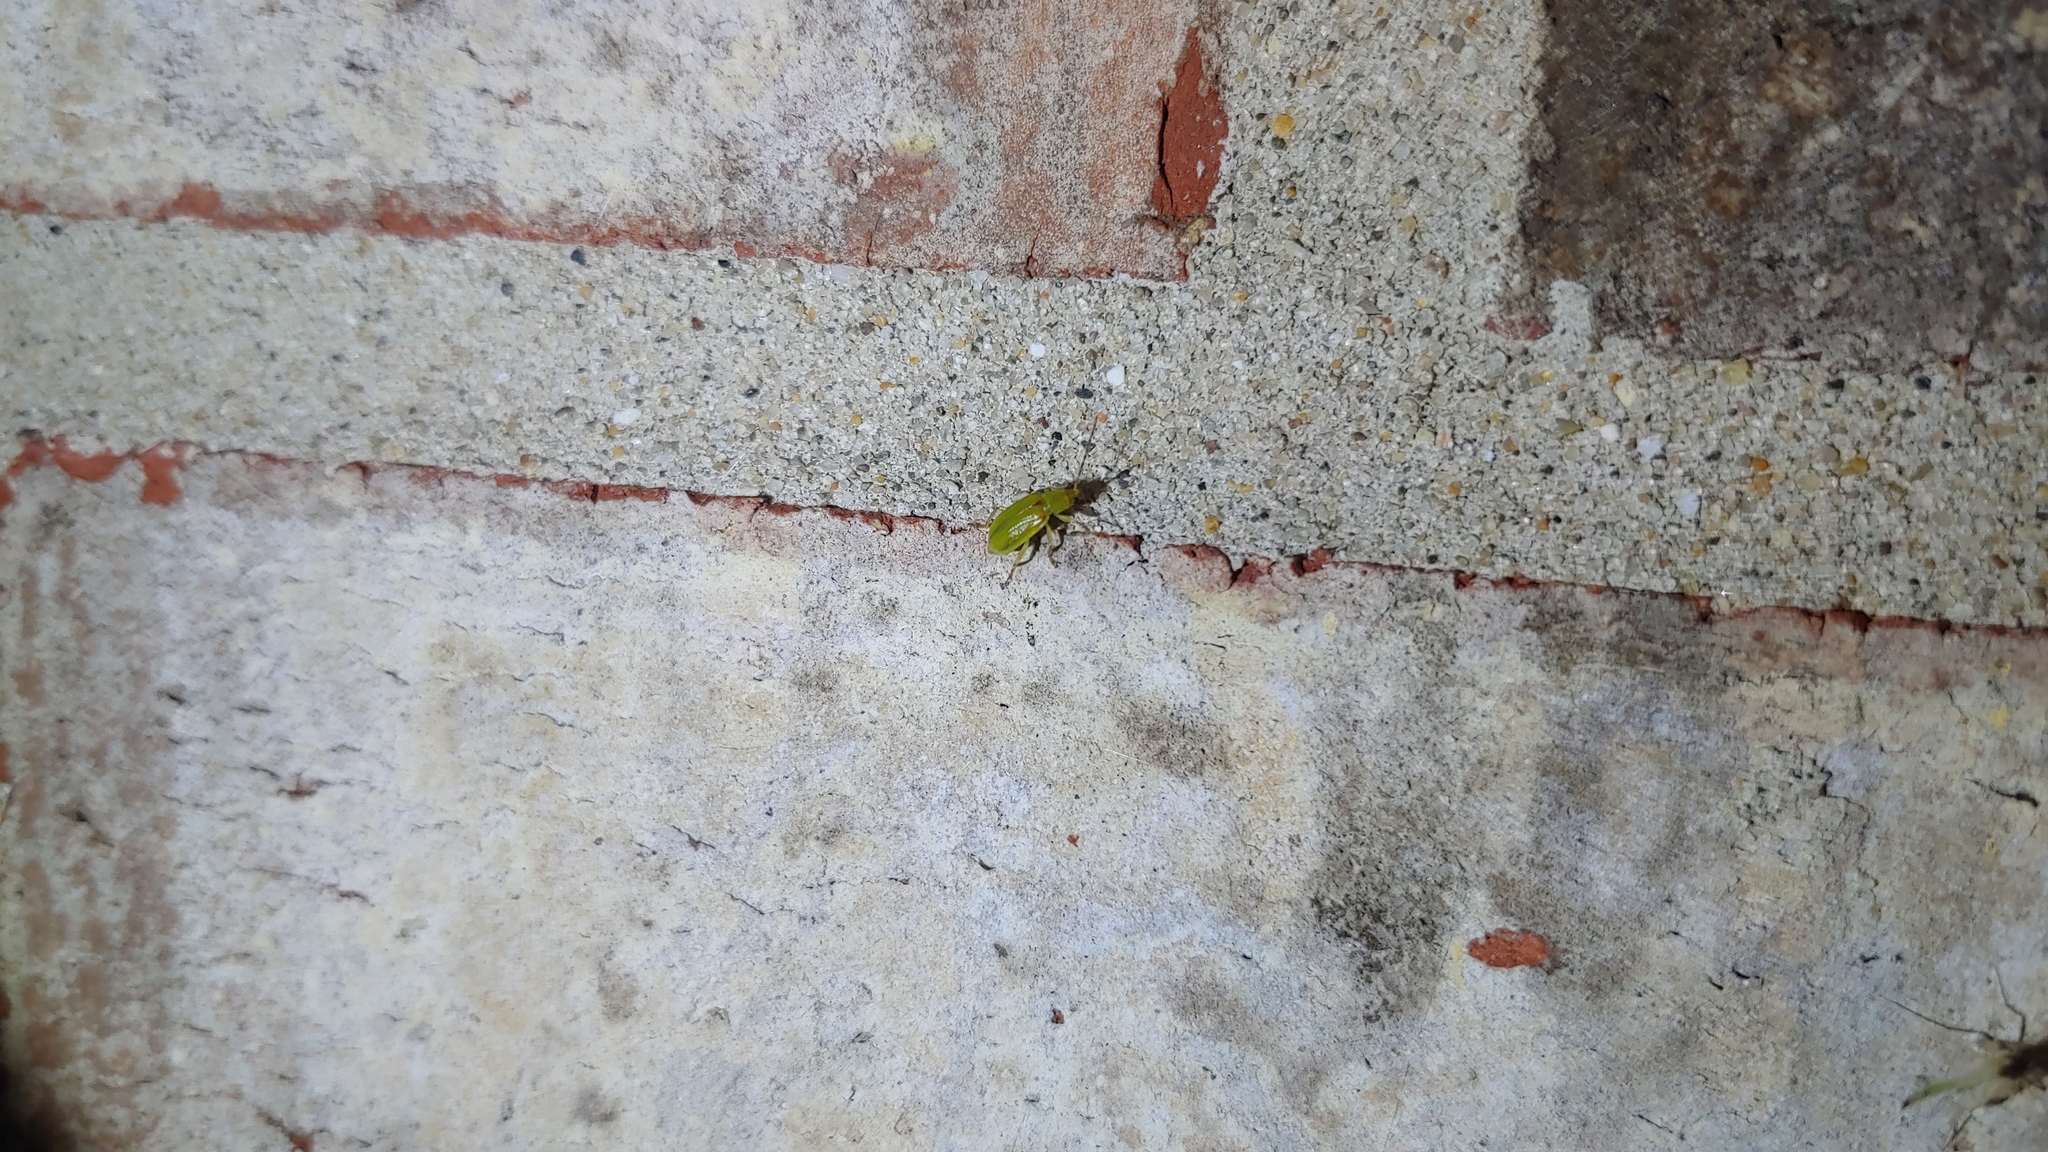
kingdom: Animalia
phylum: Arthropoda
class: Insecta
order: Coleoptera
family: Chrysomelidae
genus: Diabrotica
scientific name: Diabrotica barberi
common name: Northern corn rootworm
